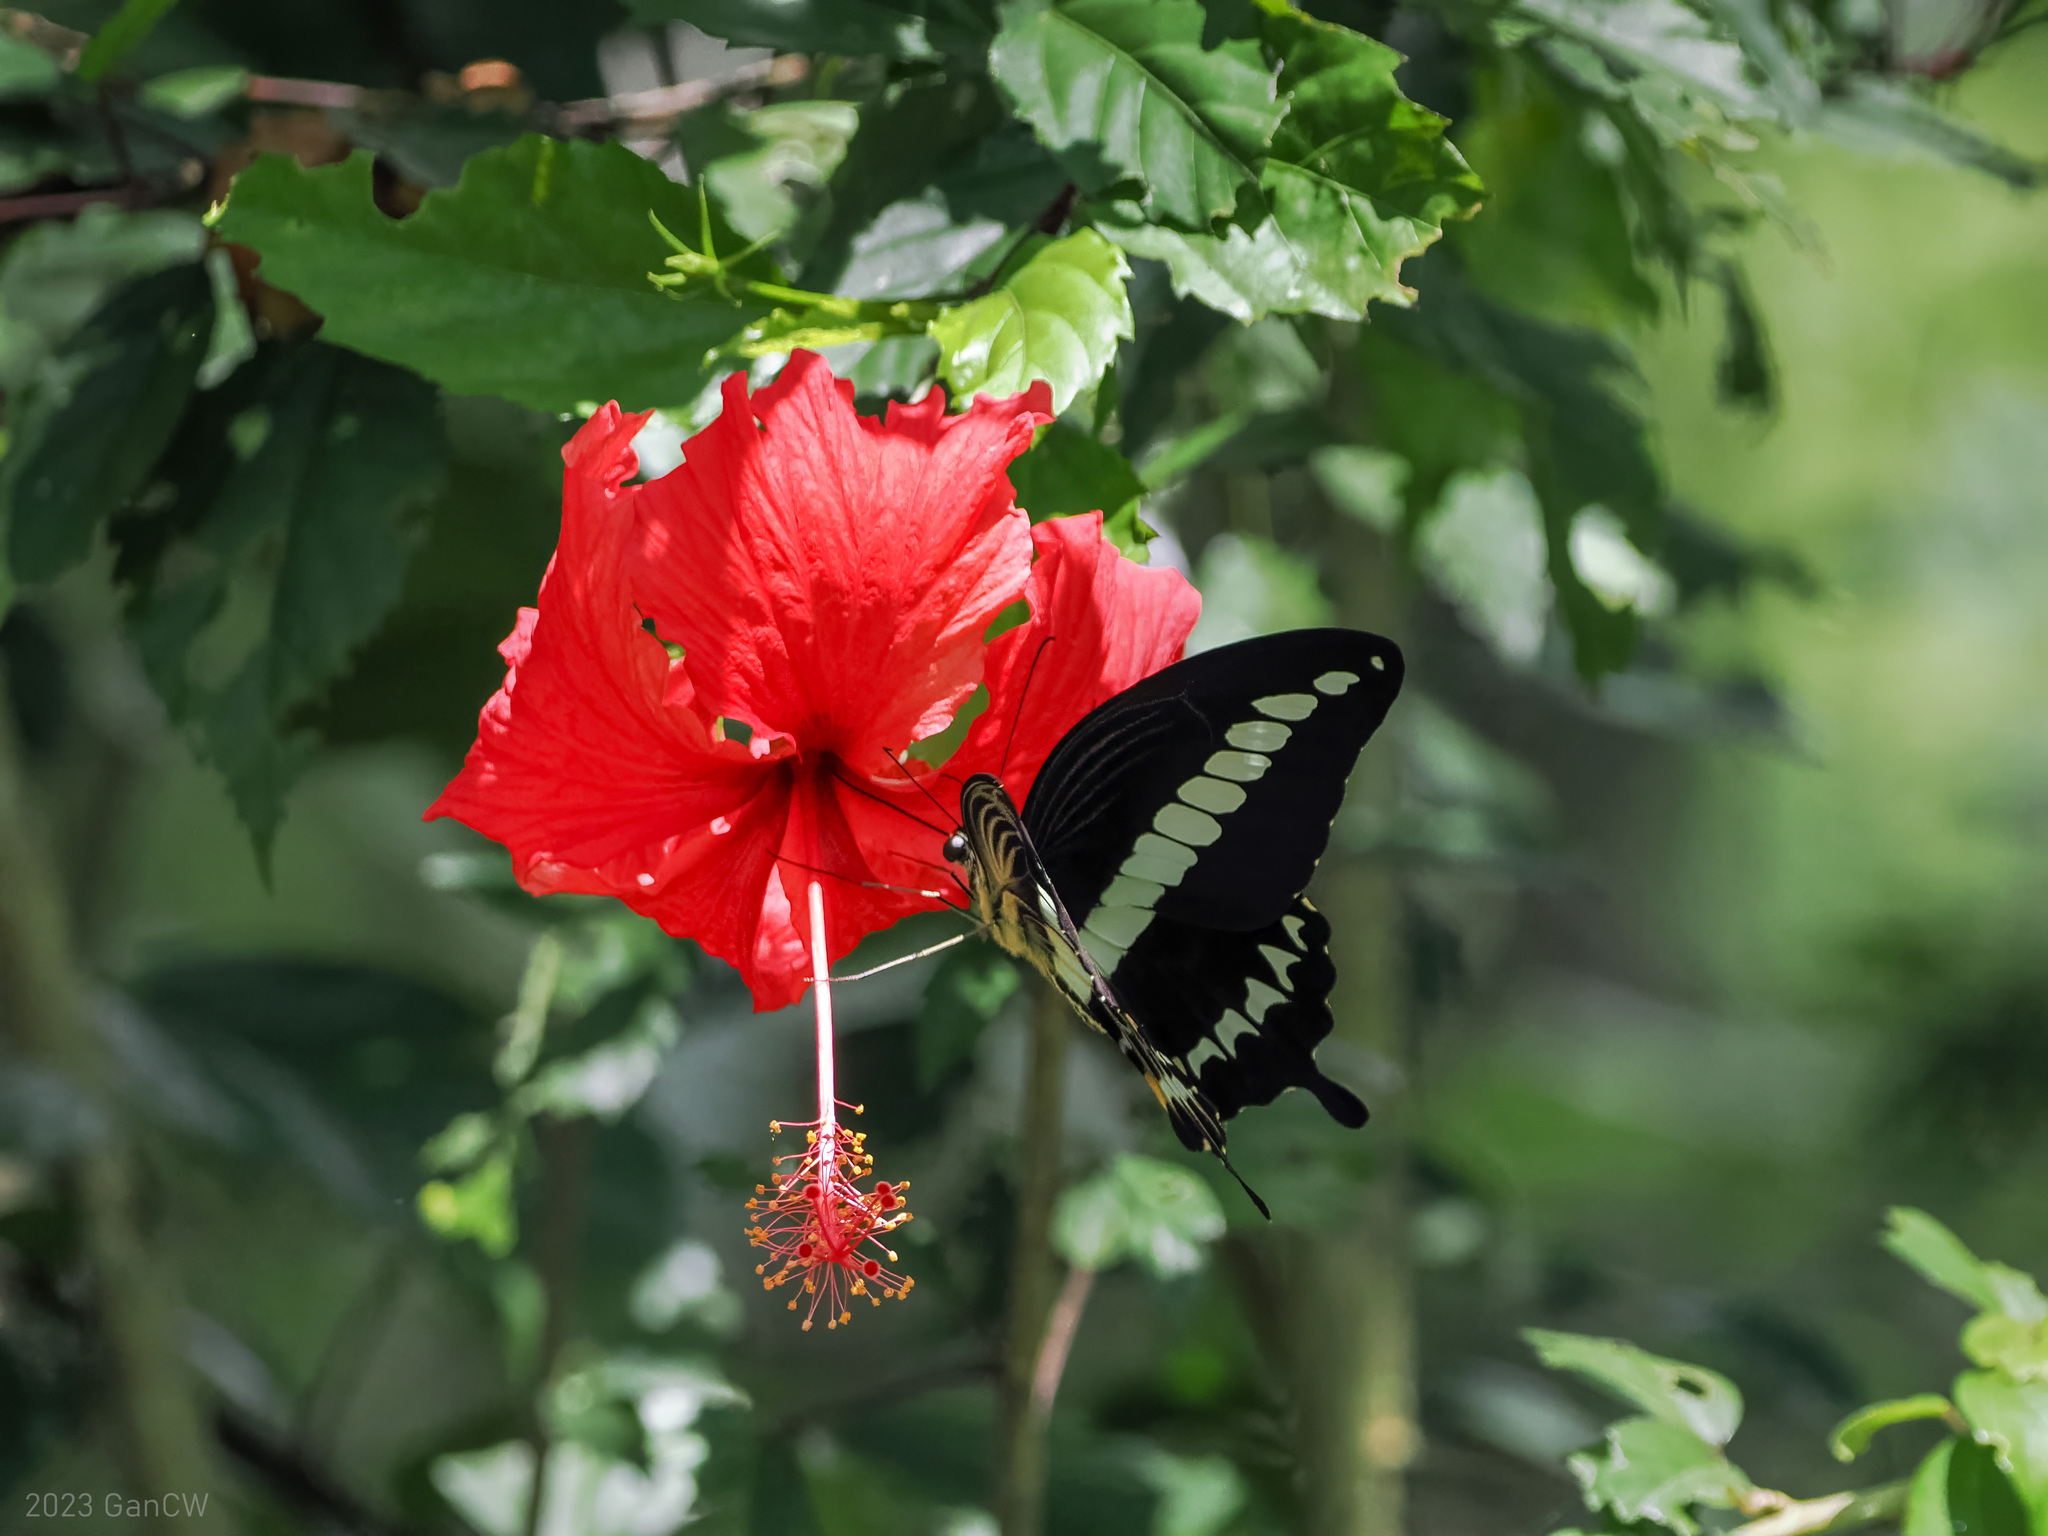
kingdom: Animalia
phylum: Arthropoda
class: Insecta
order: Lepidoptera
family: Papilionidae
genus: Papilio
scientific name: Papilio gigon
